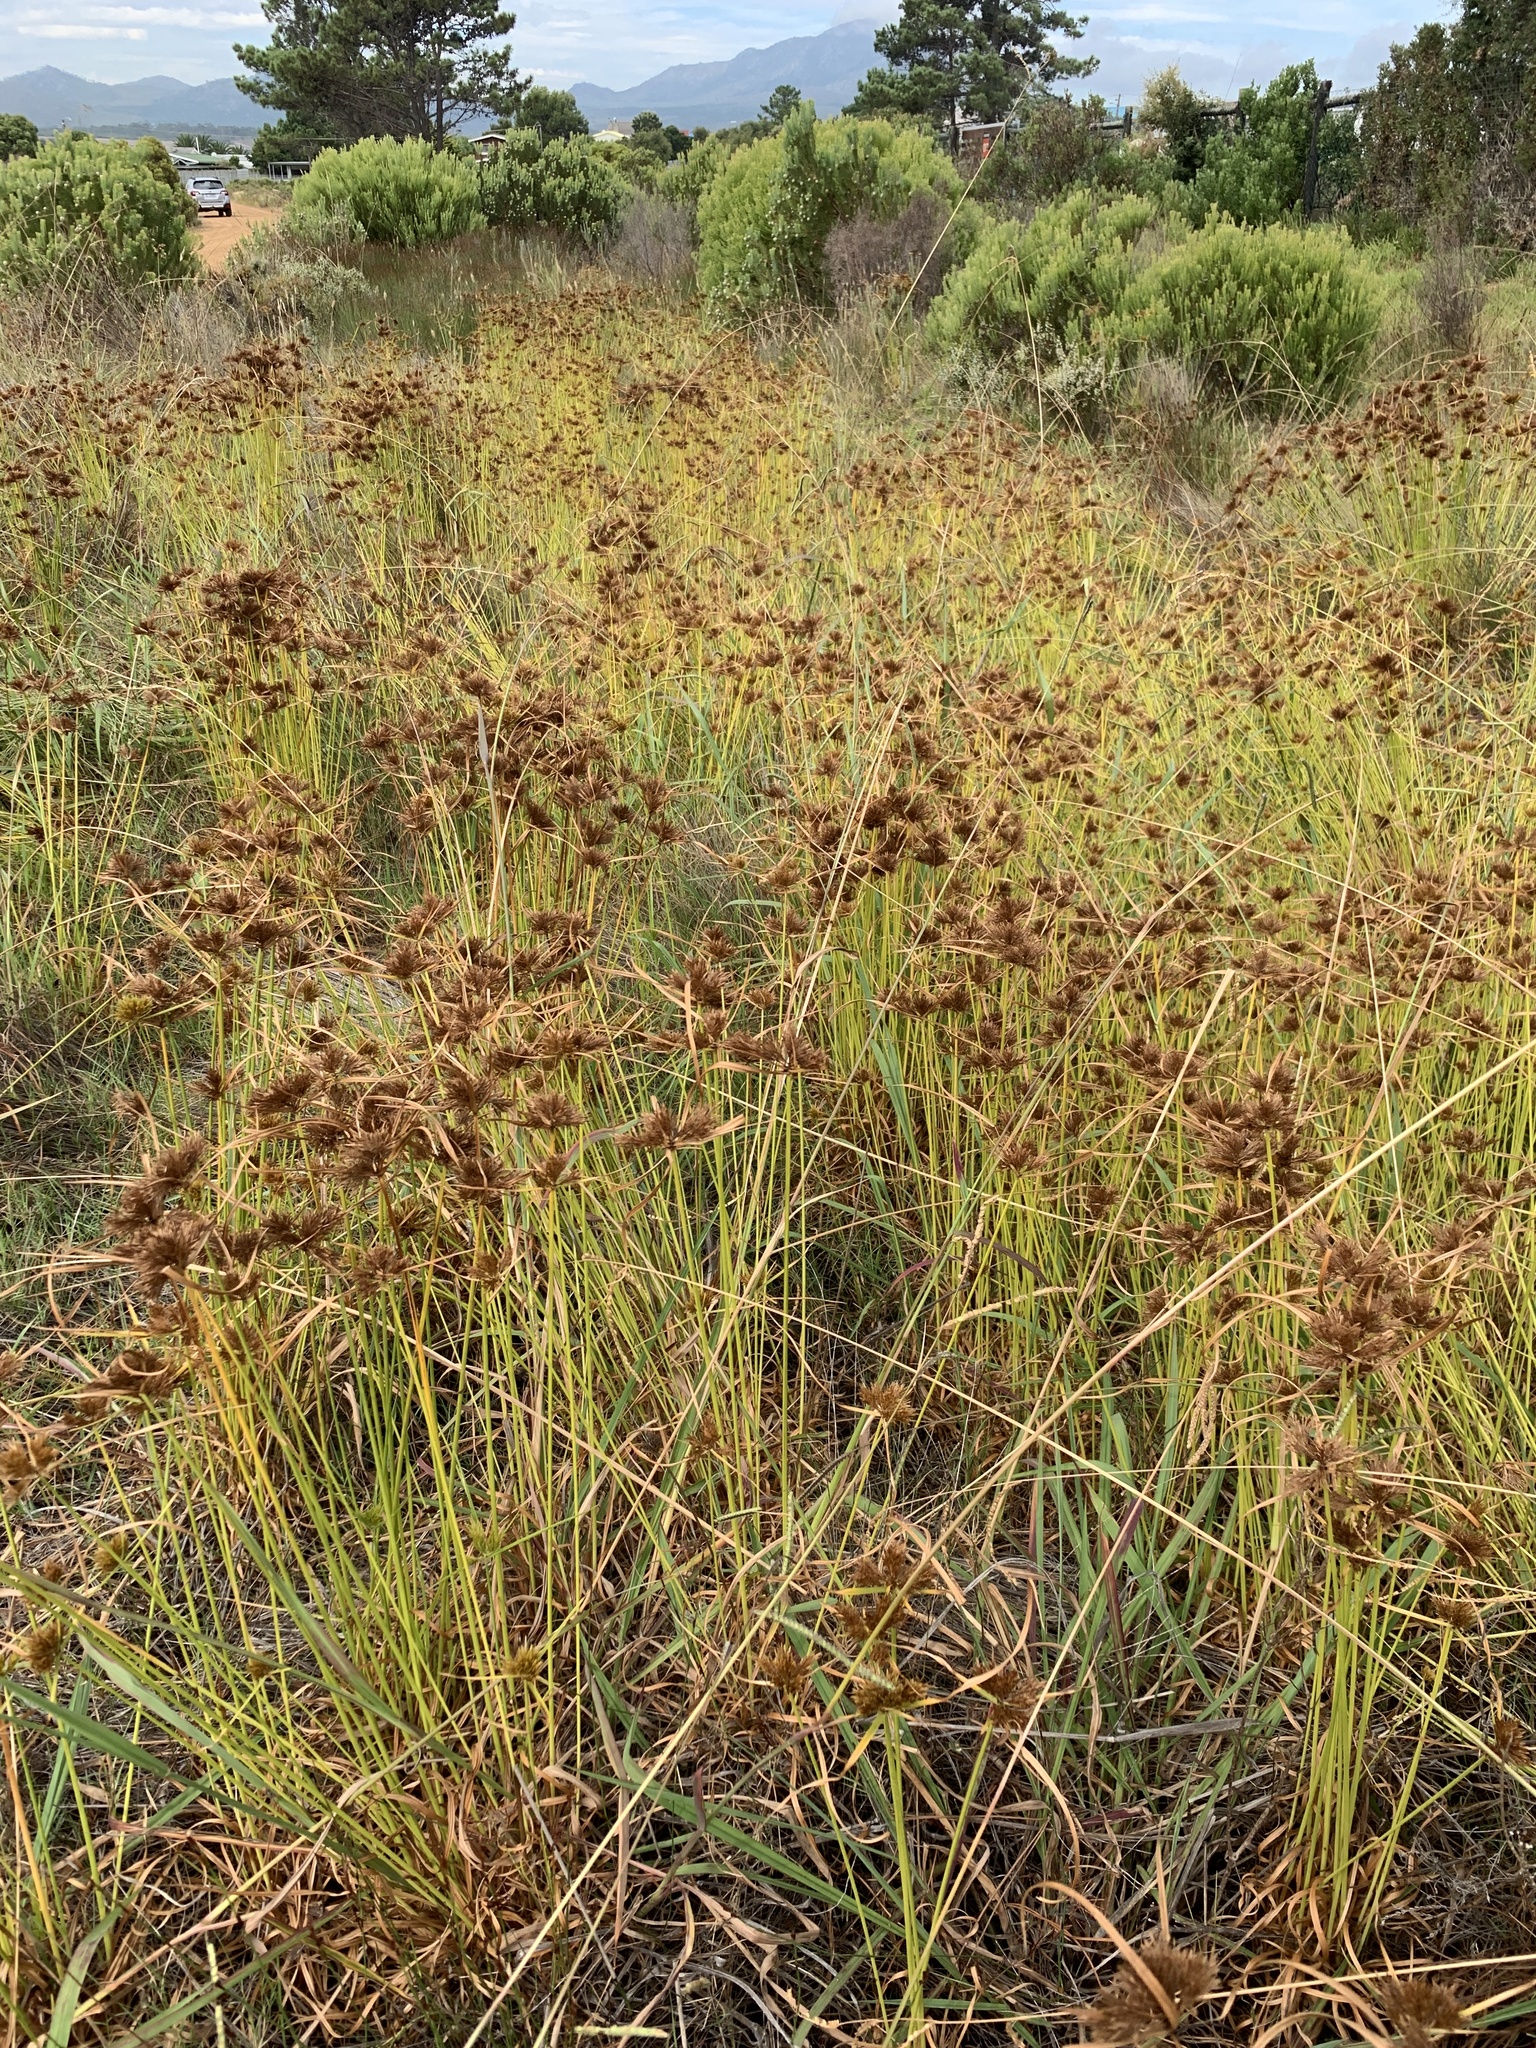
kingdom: Plantae
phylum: Tracheophyta
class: Liliopsida
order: Poales
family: Cyperaceae
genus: Cyperus
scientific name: Cyperus polystachyos
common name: Bunchy flat sedge
